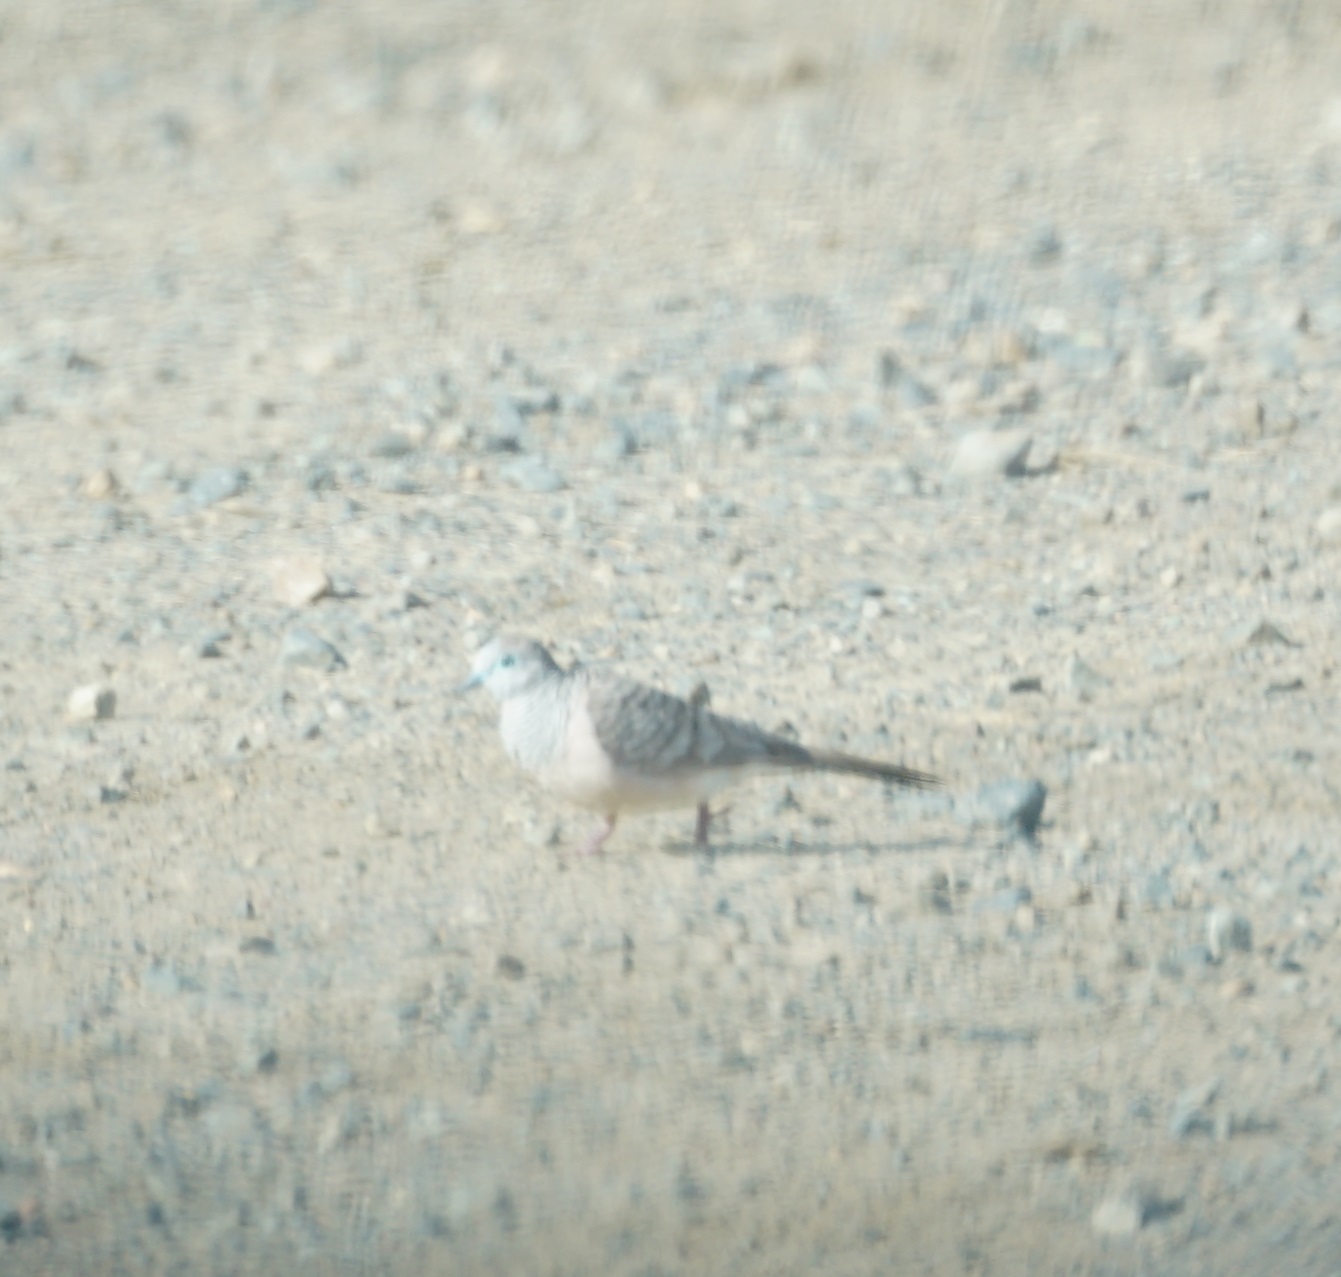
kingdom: Animalia
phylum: Chordata
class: Aves
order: Columbiformes
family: Columbidae
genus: Geopelia
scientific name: Geopelia placida
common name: Peaceful dove
